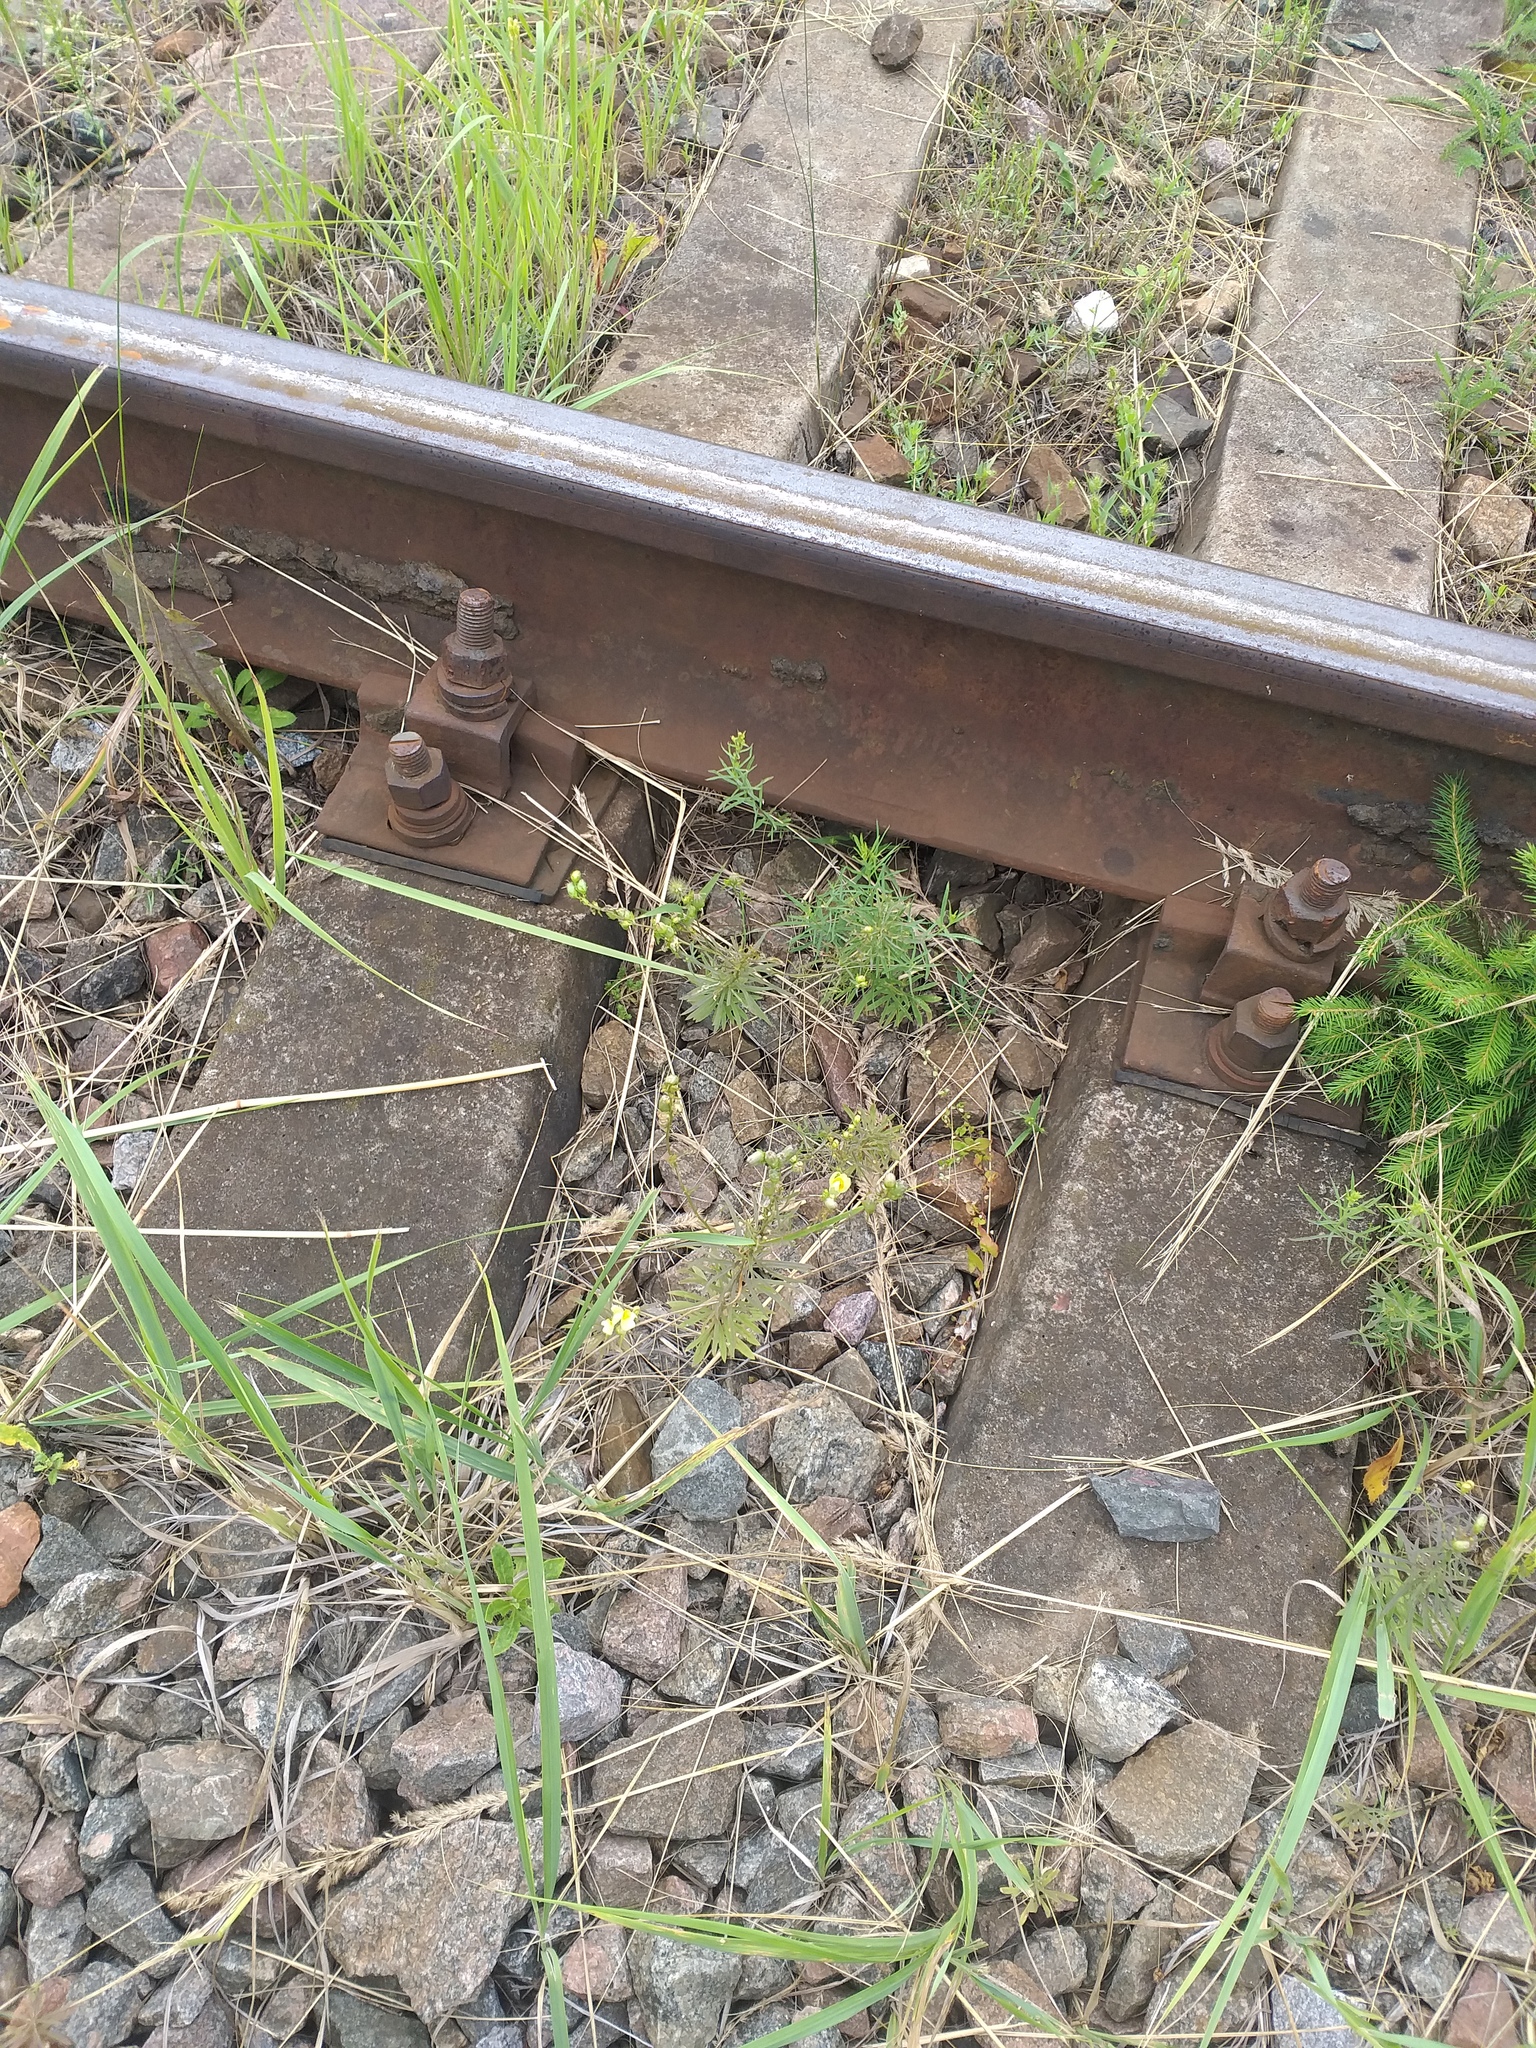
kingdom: Plantae
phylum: Tracheophyta
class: Magnoliopsida
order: Lamiales
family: Plantaginaceae
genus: Linaria
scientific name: Linaria vulgaris
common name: Butter and eggs
